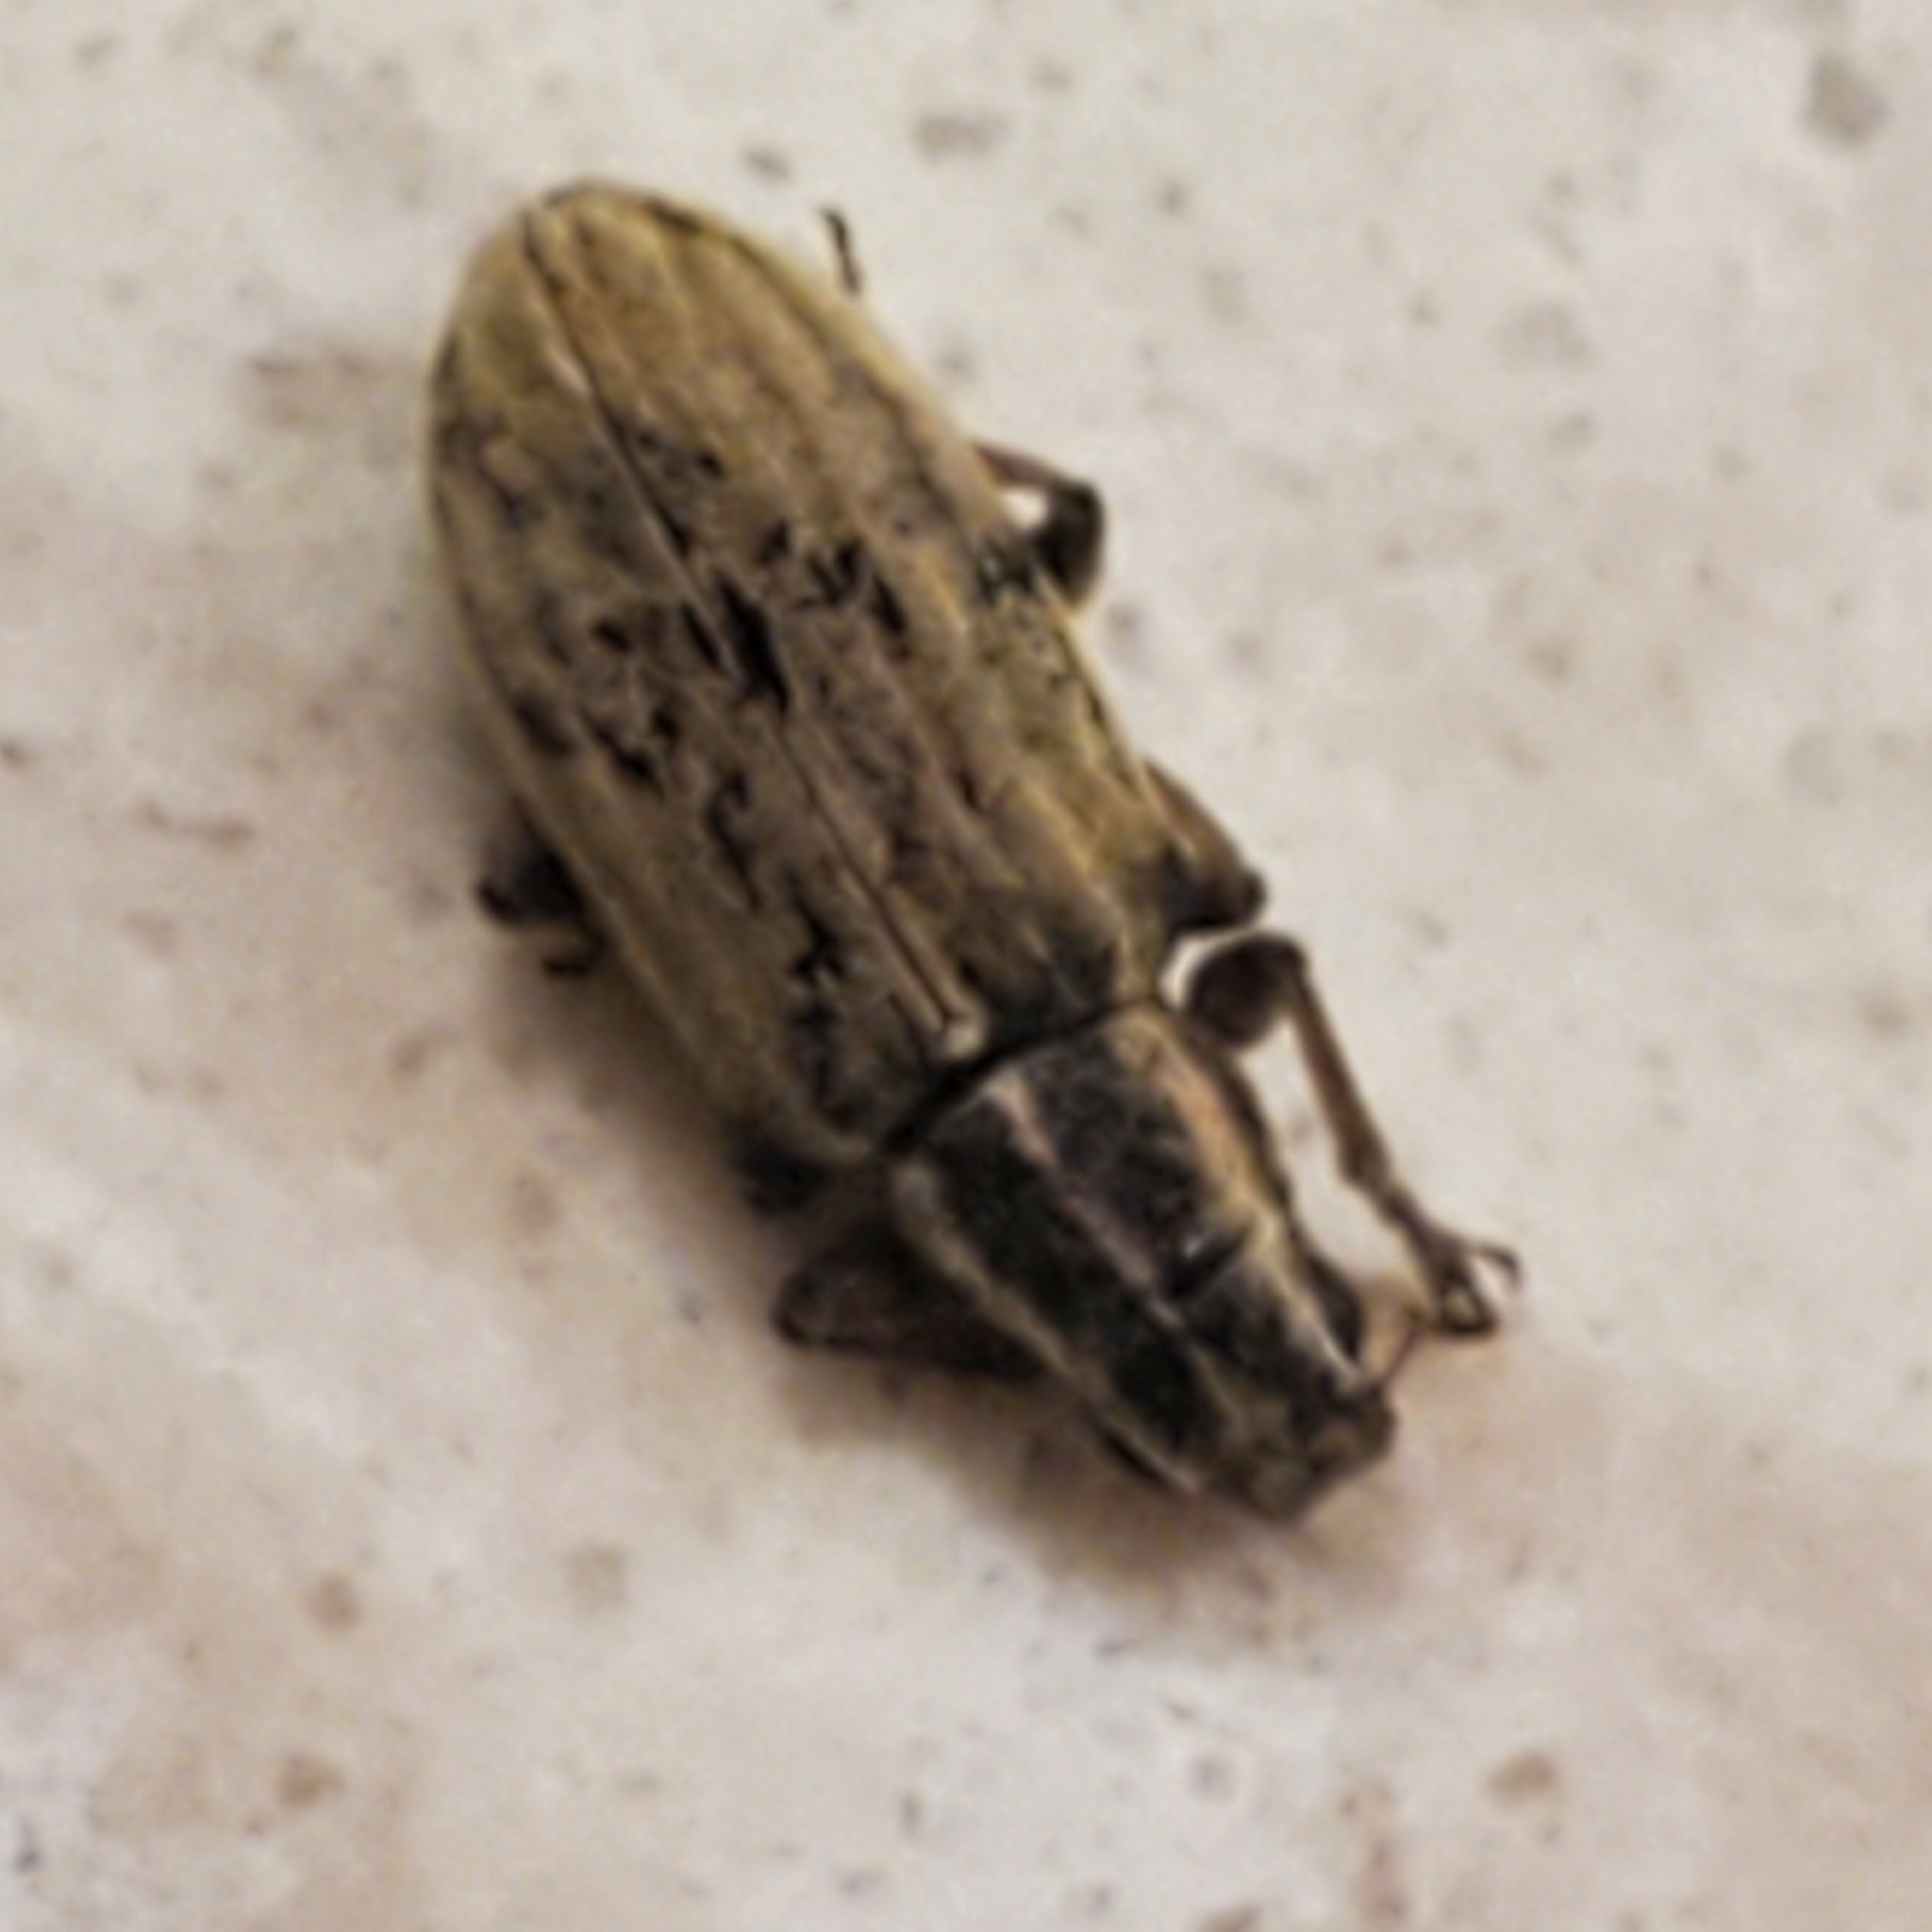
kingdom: Animalia
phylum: Arthropoda
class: Insecta
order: Coleoptera
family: Curculionidae
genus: Sitona
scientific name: Sitona lineatus
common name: Weevil
